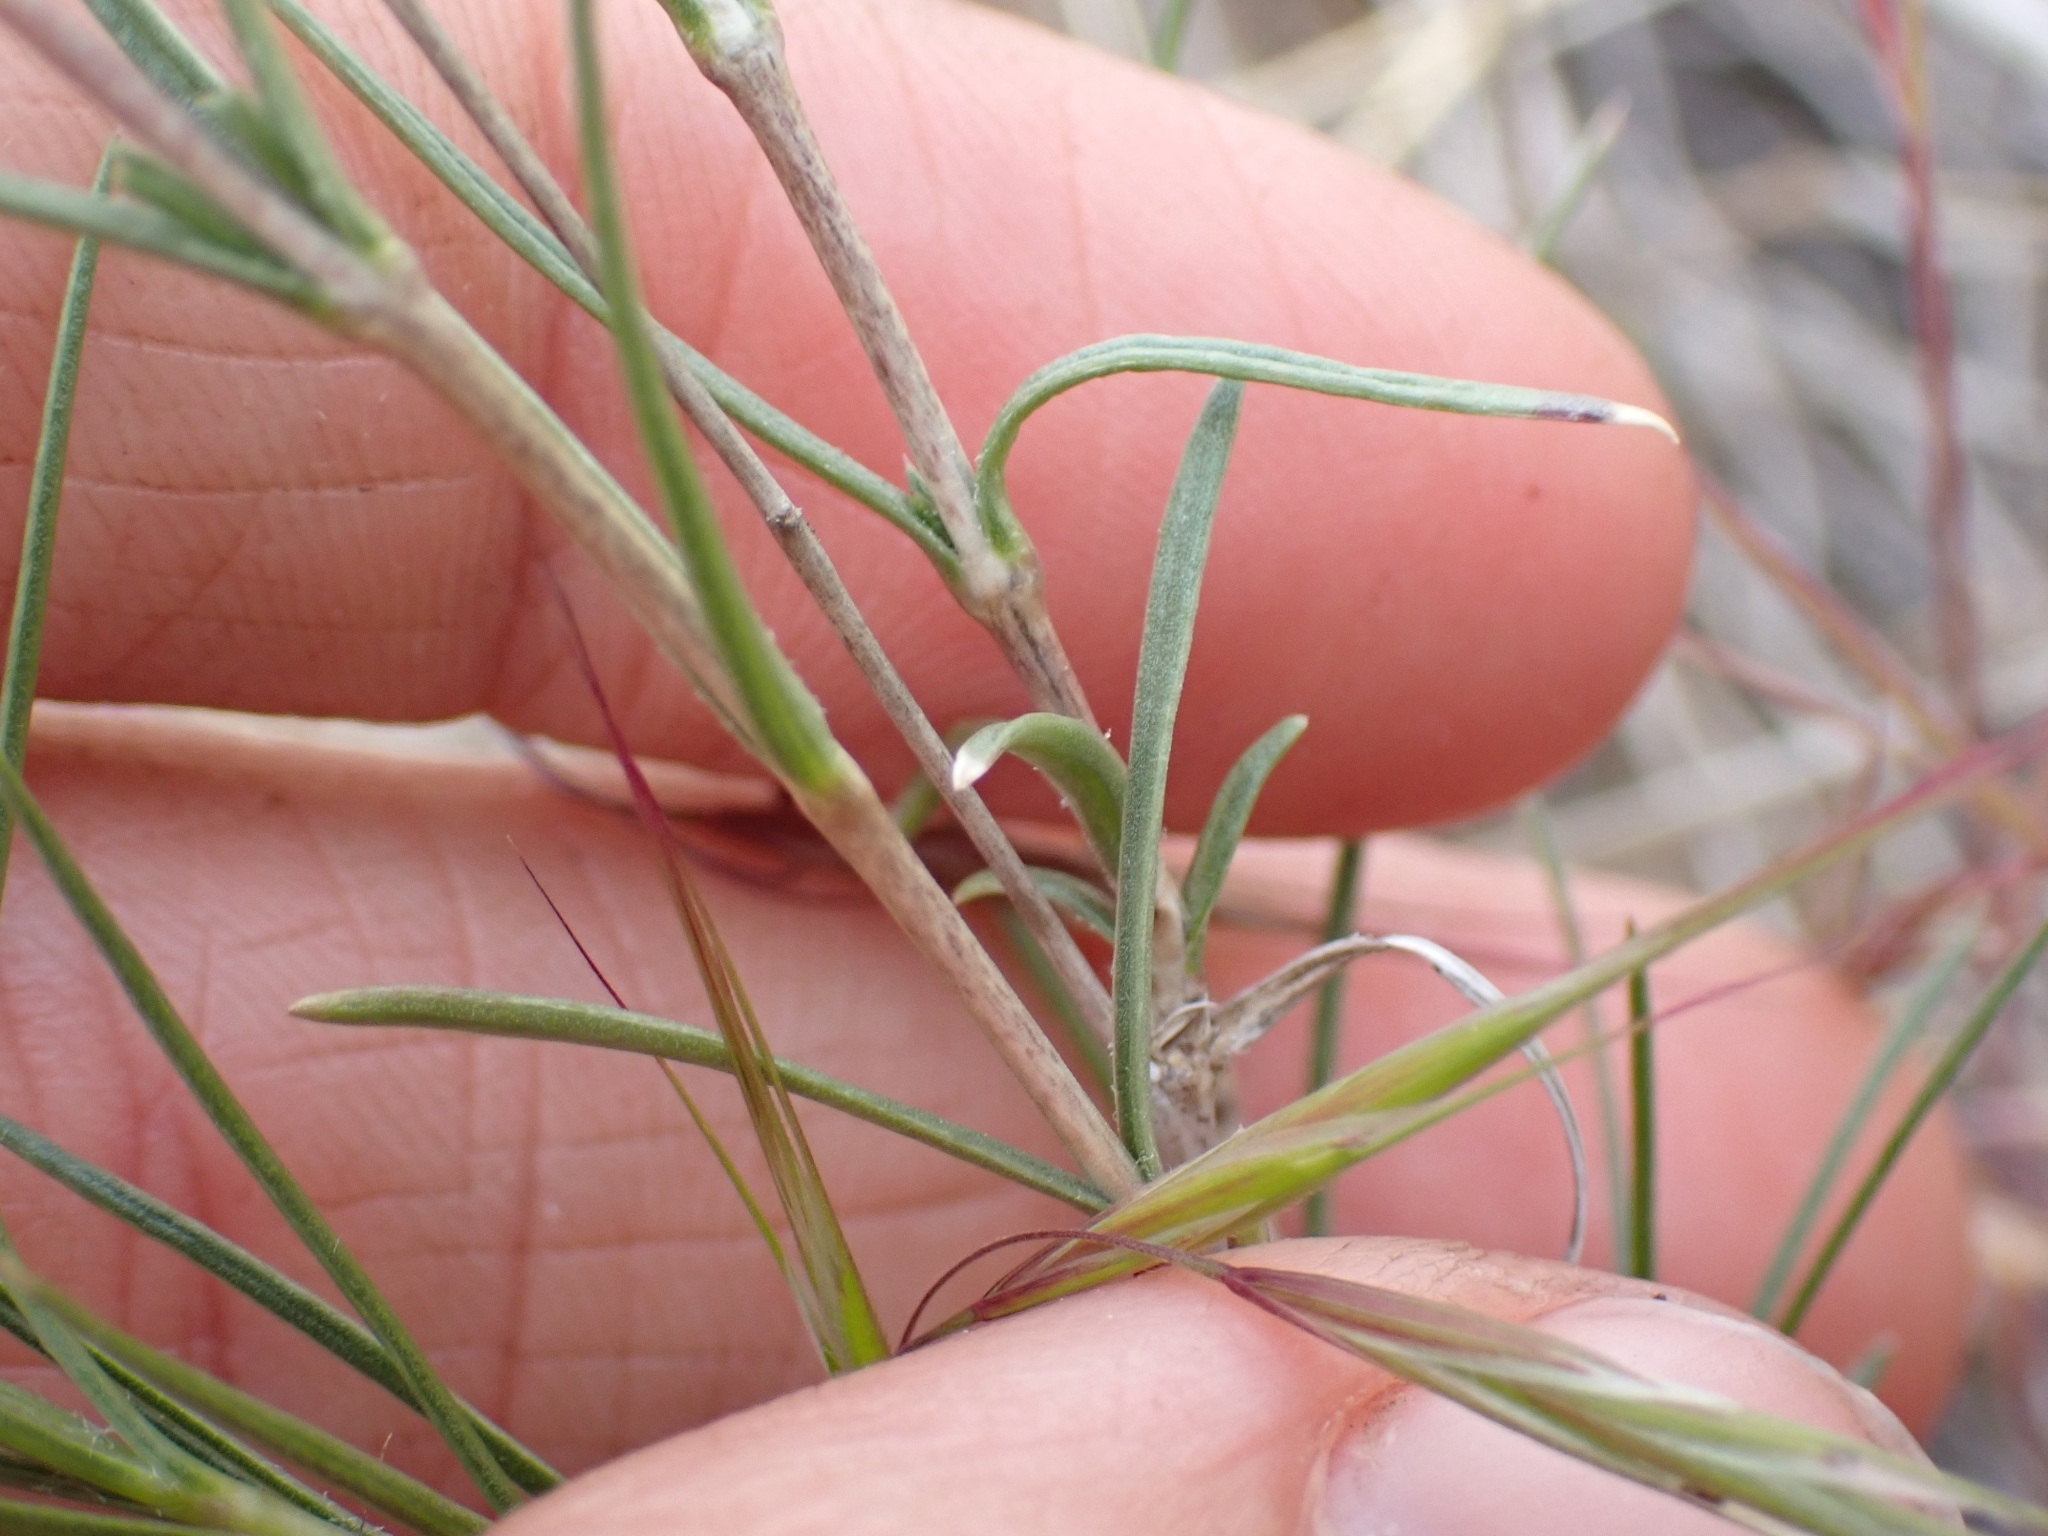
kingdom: Plantae
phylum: Tracheophyta
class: Magnoliopsida
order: Ericales
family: Polemoniaceae
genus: Phlox
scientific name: Phlox longifolia
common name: Longleaf phlox
